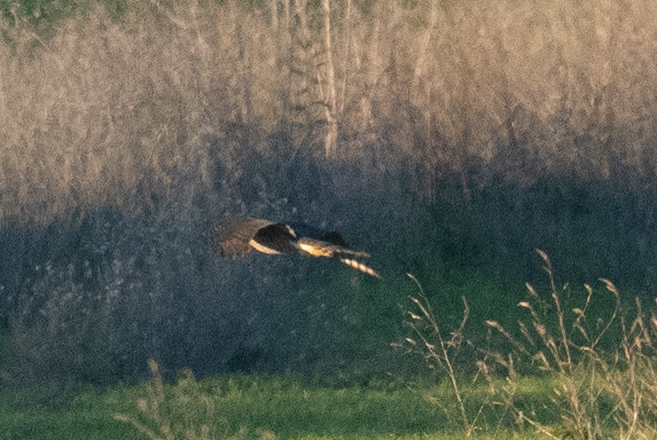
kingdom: Animalia
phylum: Chordata
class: Aves
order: Accipitriformes
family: Accipitridae
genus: Accipiter
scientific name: Accipiter cooperii
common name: Cooper's hawk
